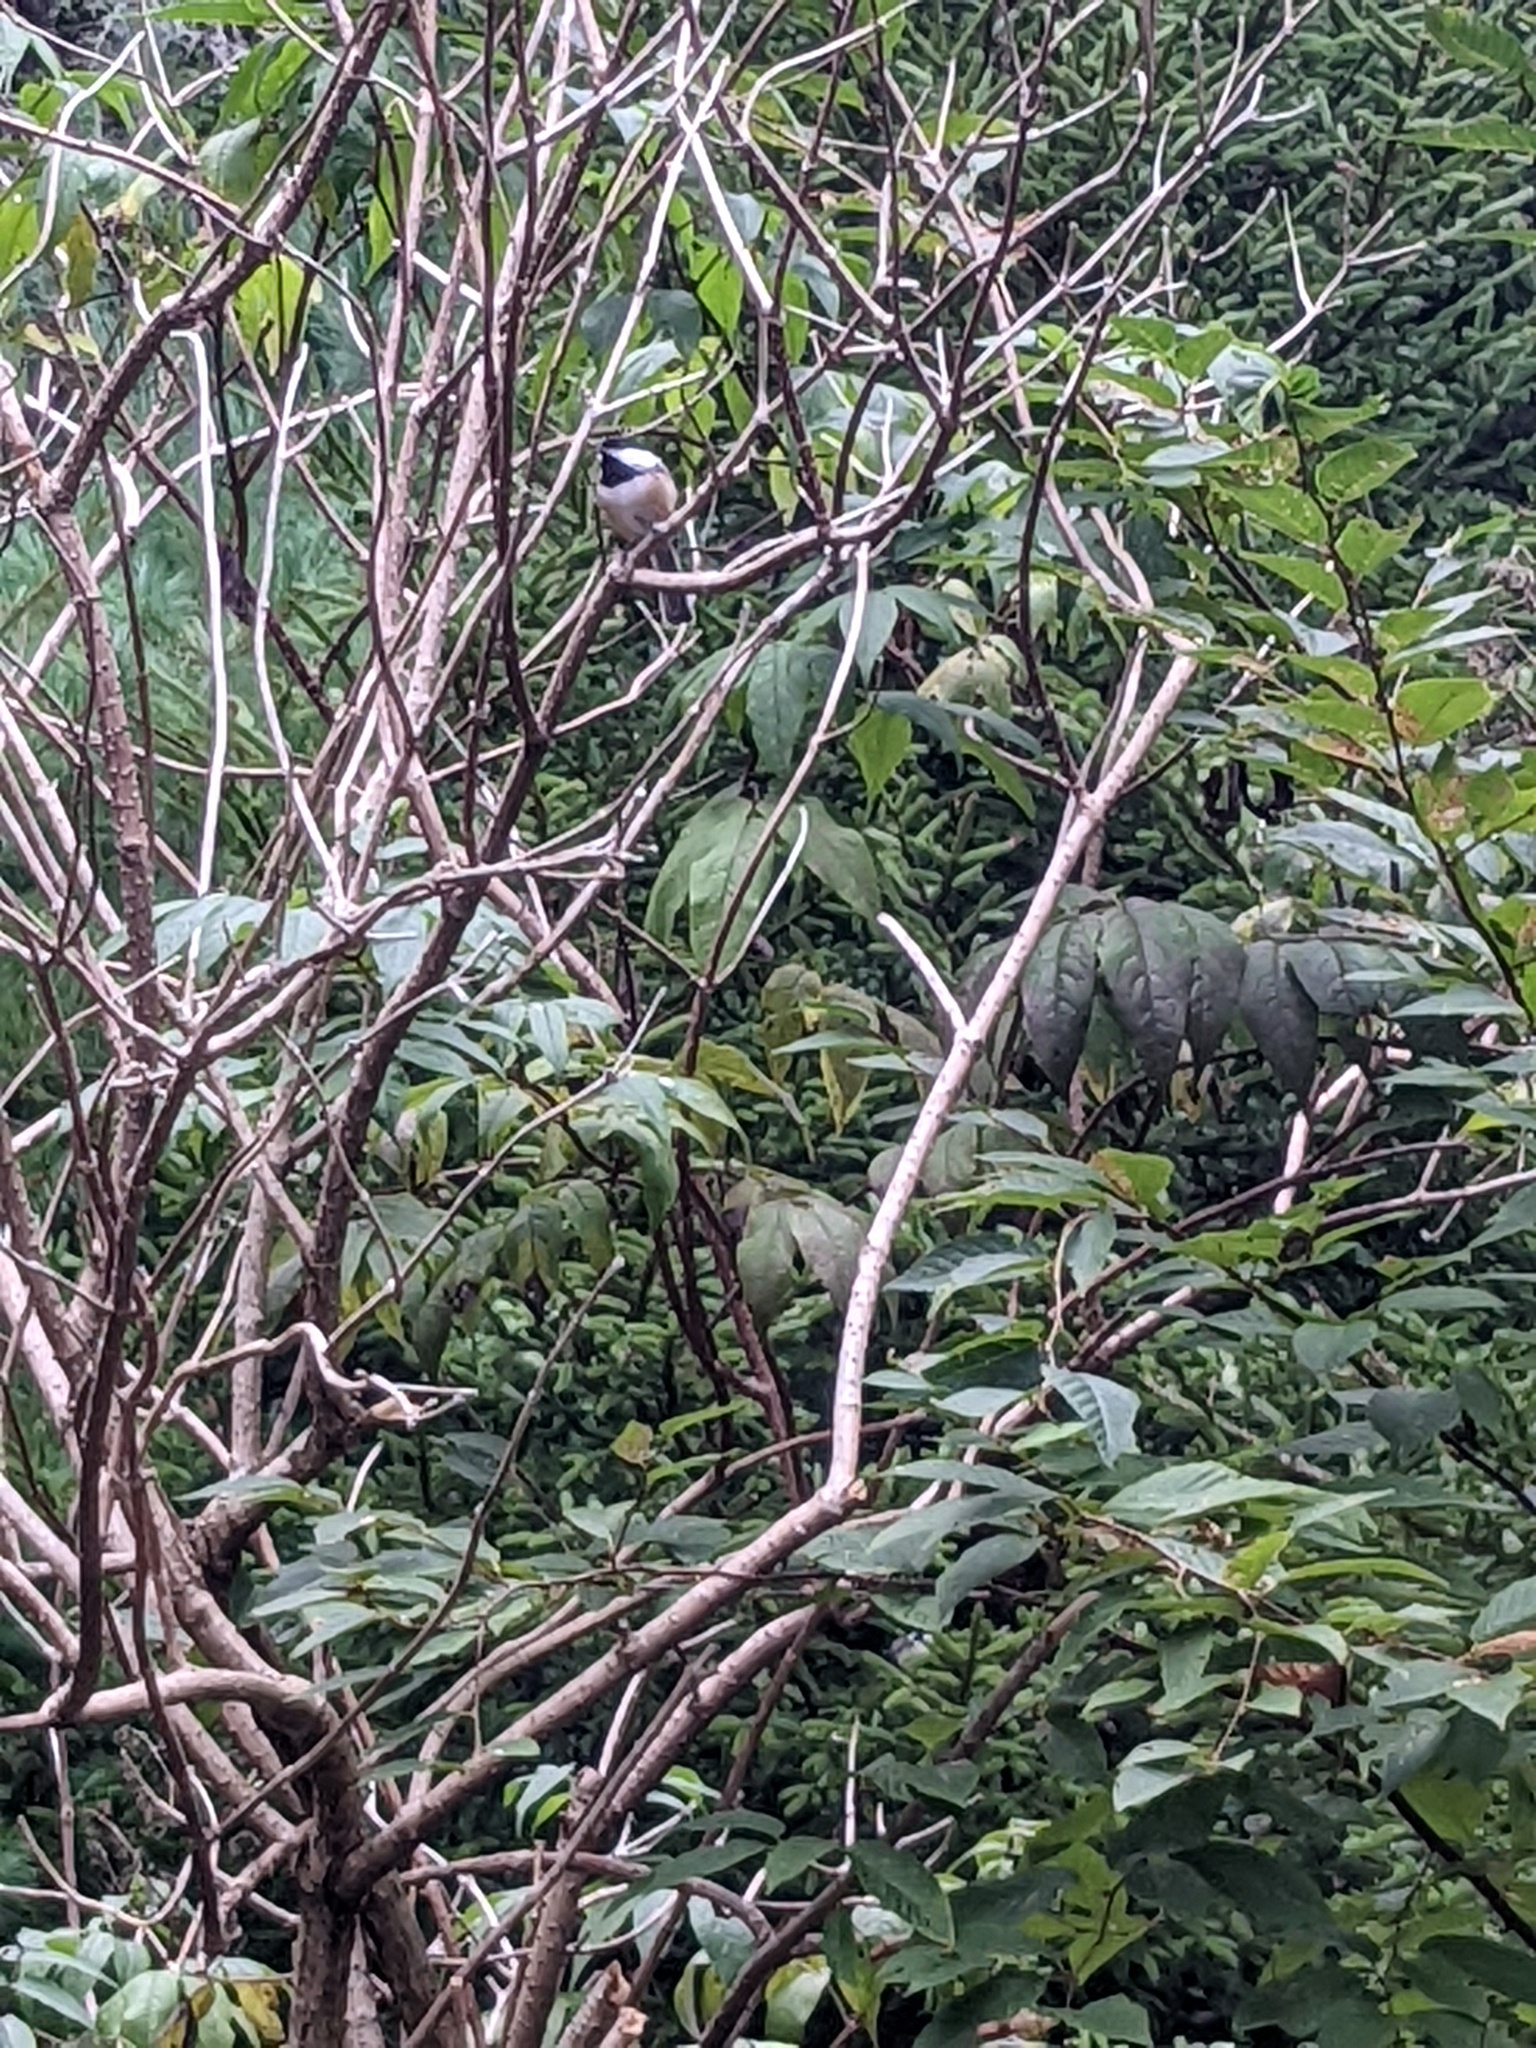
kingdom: Animalia
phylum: Chordata
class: Aves
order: Passeriformes
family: Paridae
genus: Poecile
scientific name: Poecile atricapillus
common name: Black-capped chickadee
